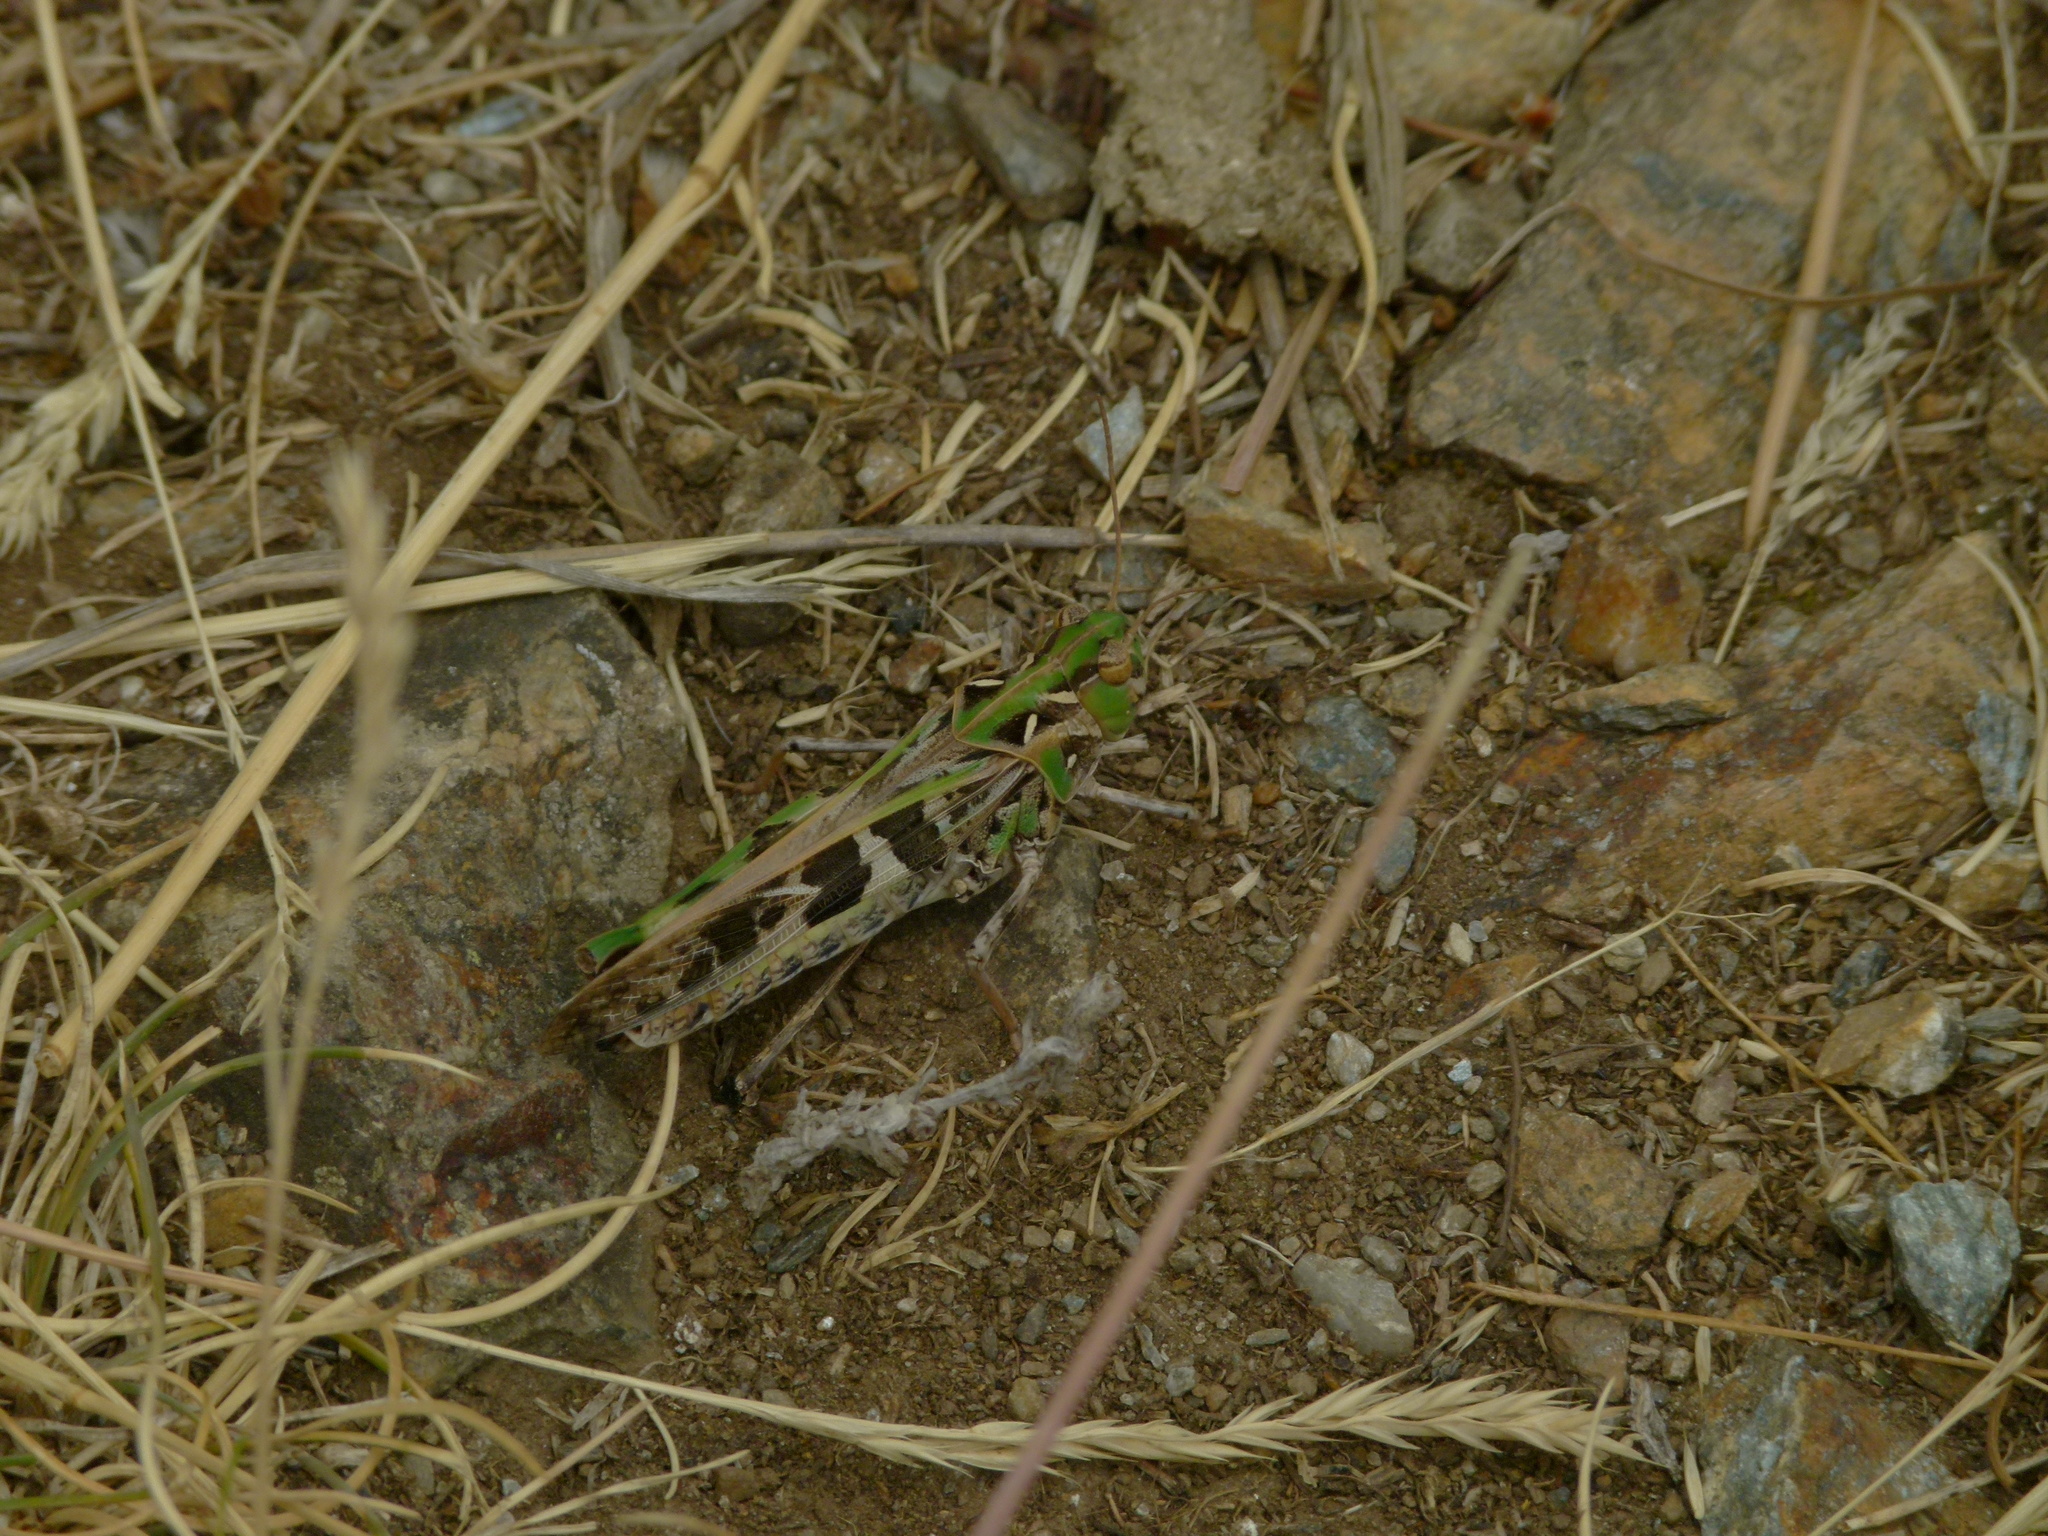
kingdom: Animalia
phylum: Arthropoda
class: Insecta
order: Orthoptera
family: Acrididae
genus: Oedaleus
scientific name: Oedaleus decorus
